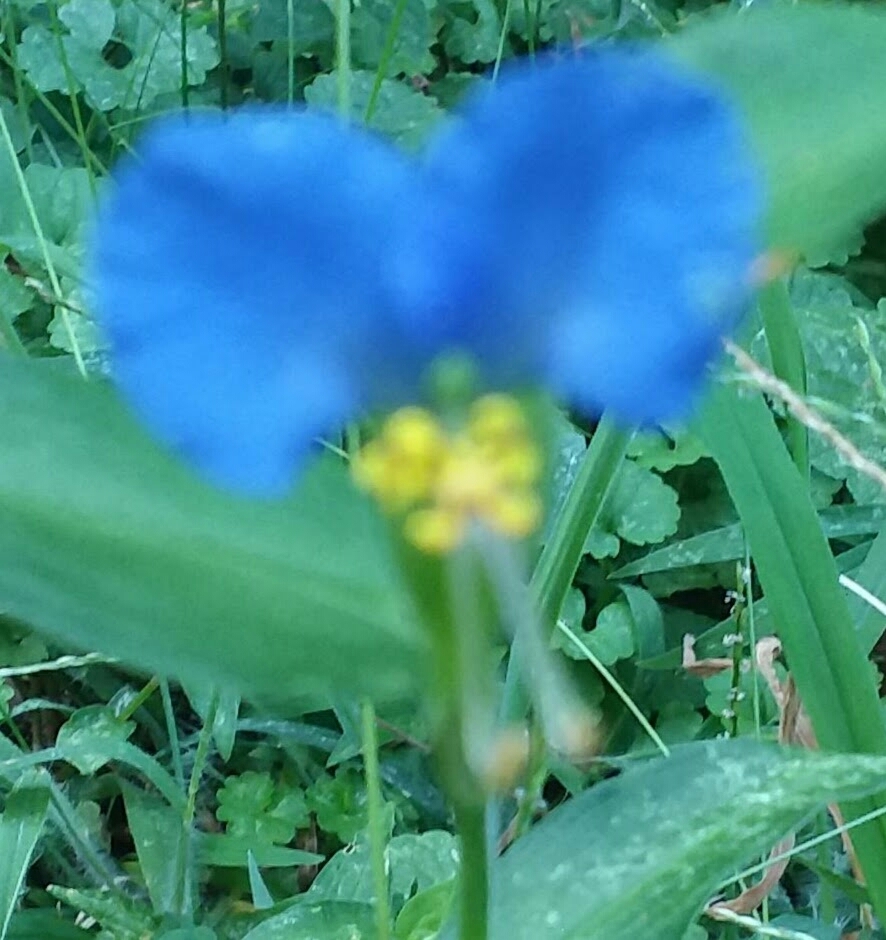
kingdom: Plantae
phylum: Tracheophyta
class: Liliopsida
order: Commelinales
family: Commelinaceae
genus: Commelina
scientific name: Commelina communis
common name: Asiatic dayflower
